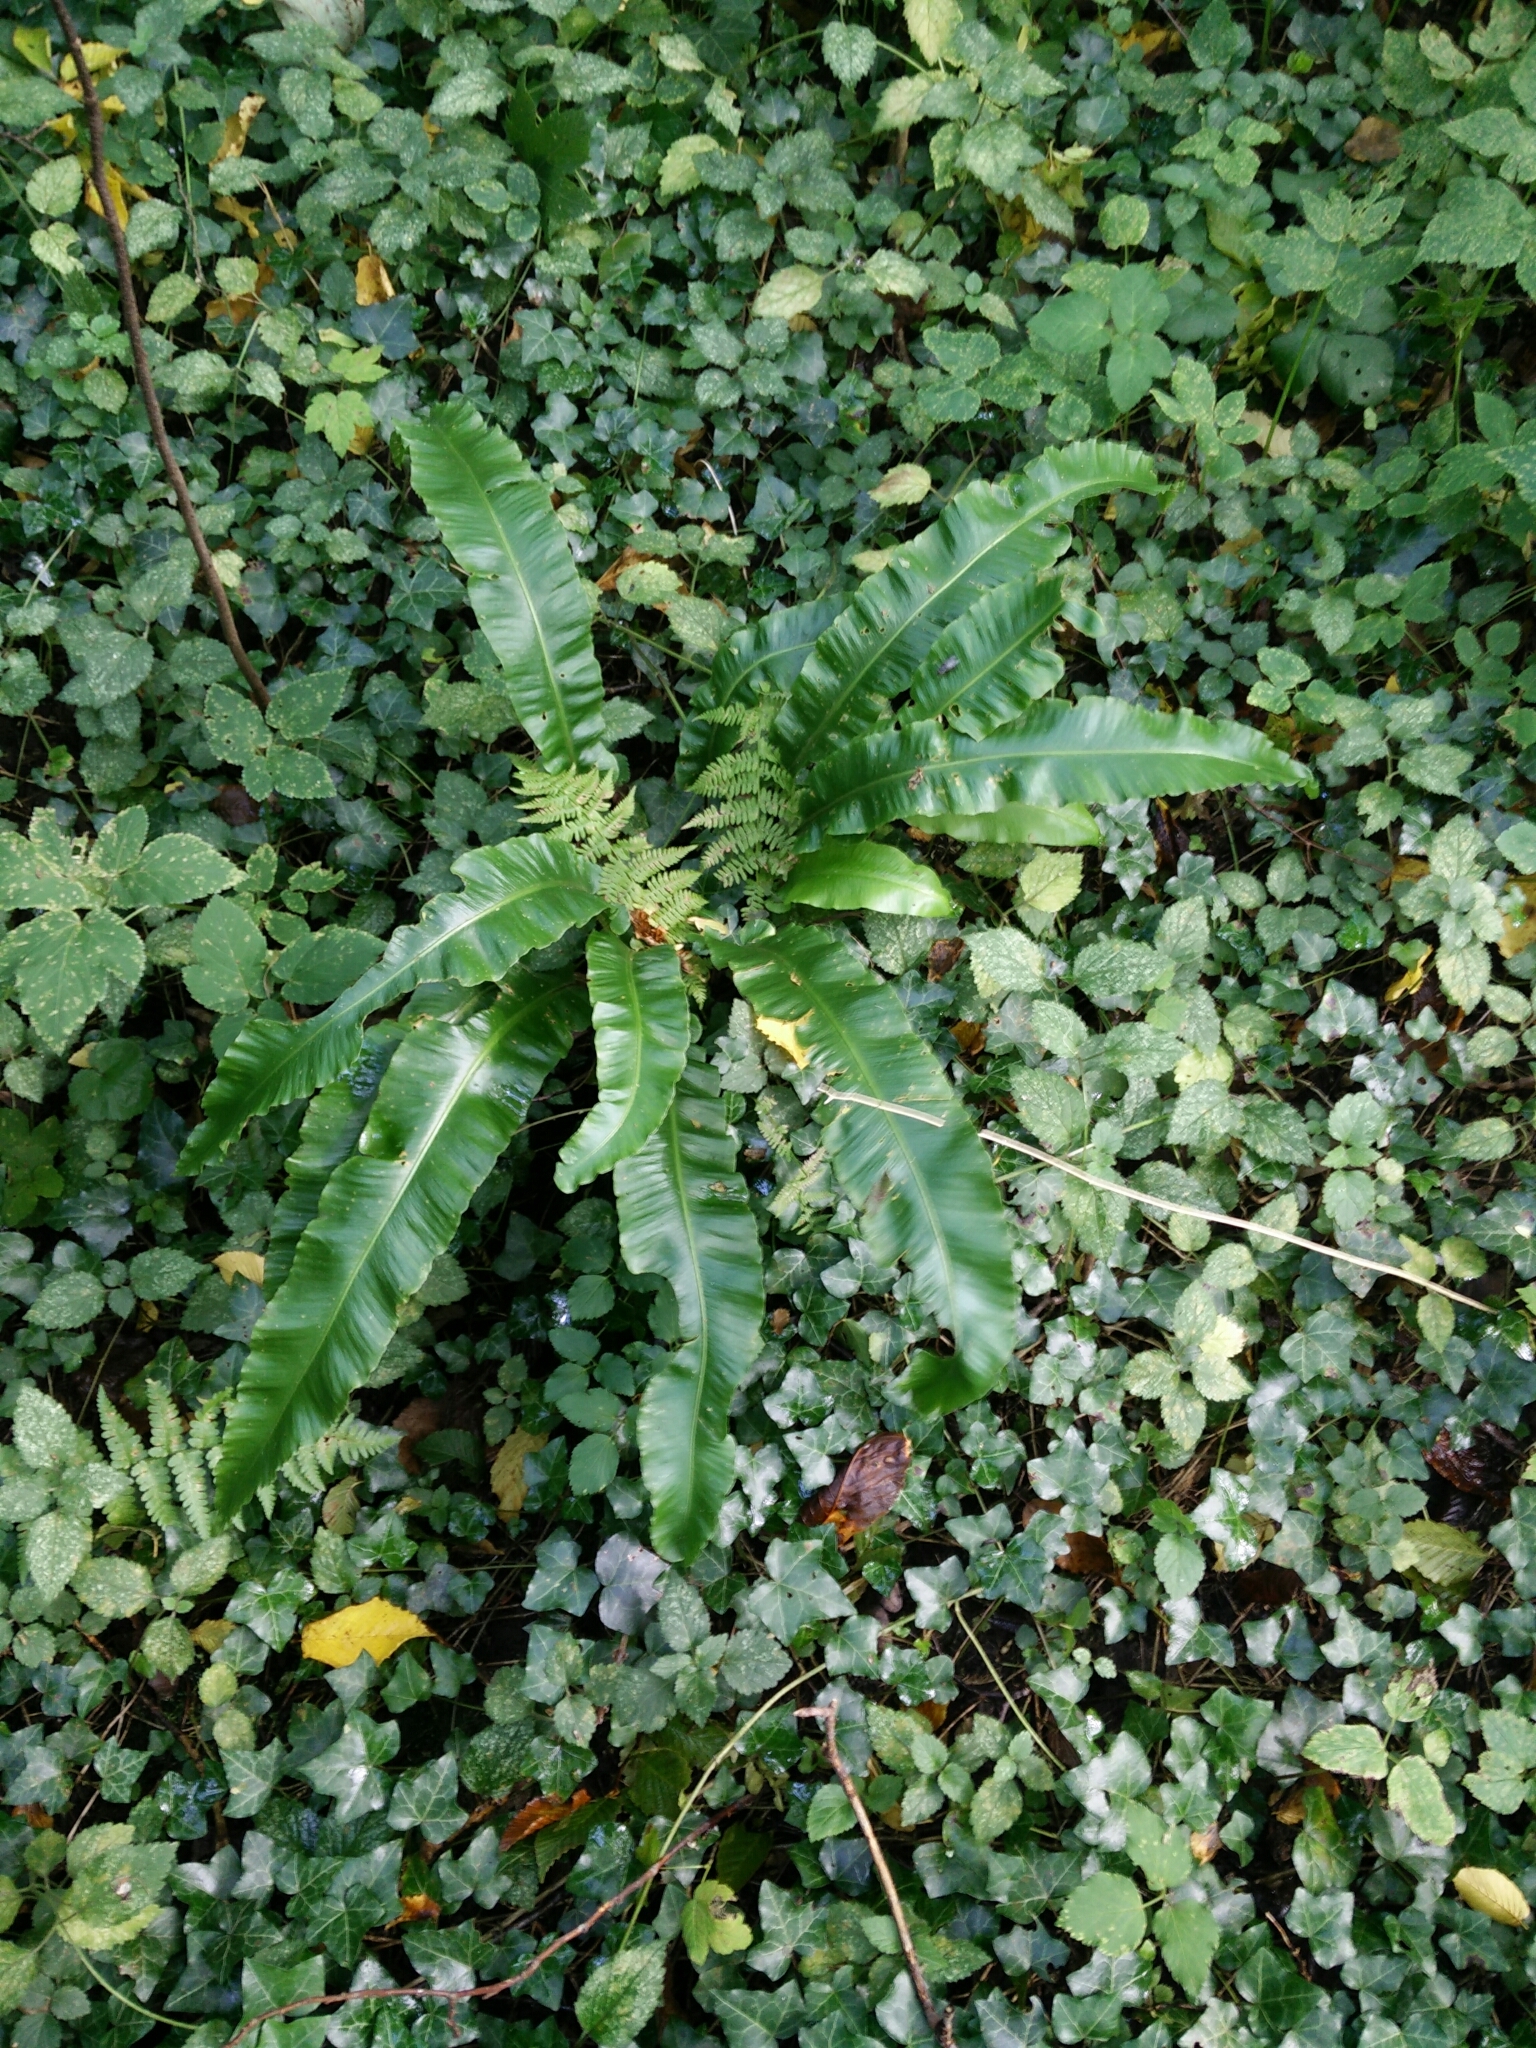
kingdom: Plantae
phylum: Tracheophyta
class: Polypodiopsida
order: Polypodiales
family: Aspleniaceae
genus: Asplenium
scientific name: Asplenium scolopendrium
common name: Hart's-tongue fern
